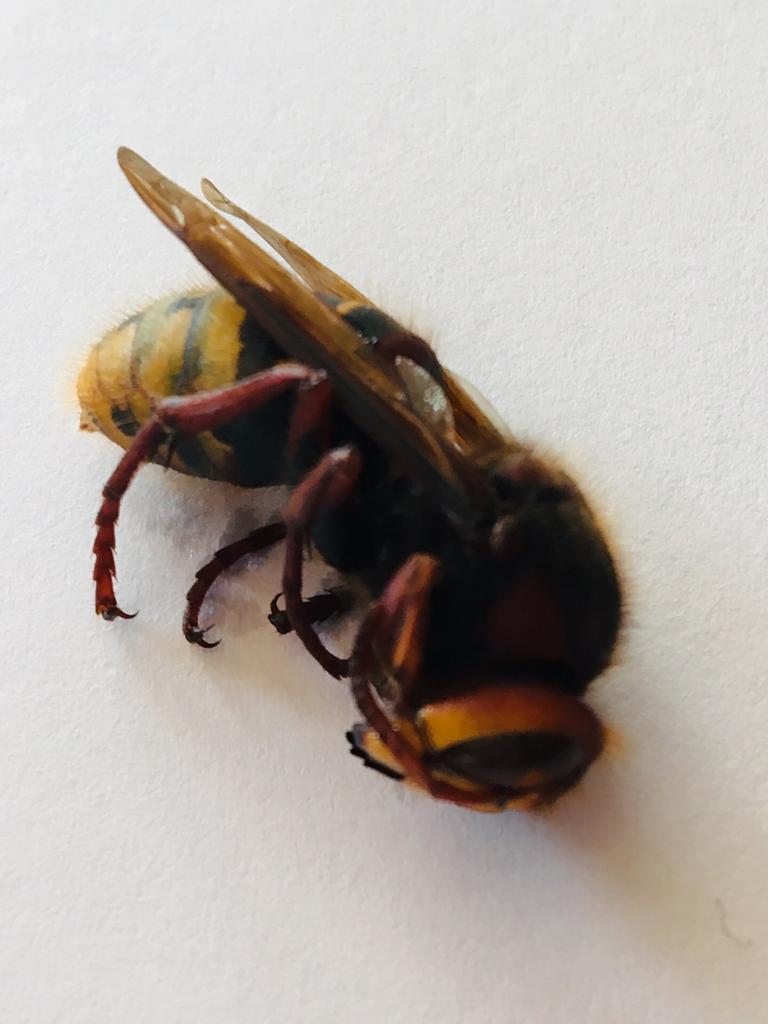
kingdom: Animalia
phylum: Arthropoda
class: Insecta
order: Hymenoptera
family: Vespidae
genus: Vespa
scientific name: Vespa crabro
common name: Hornet
